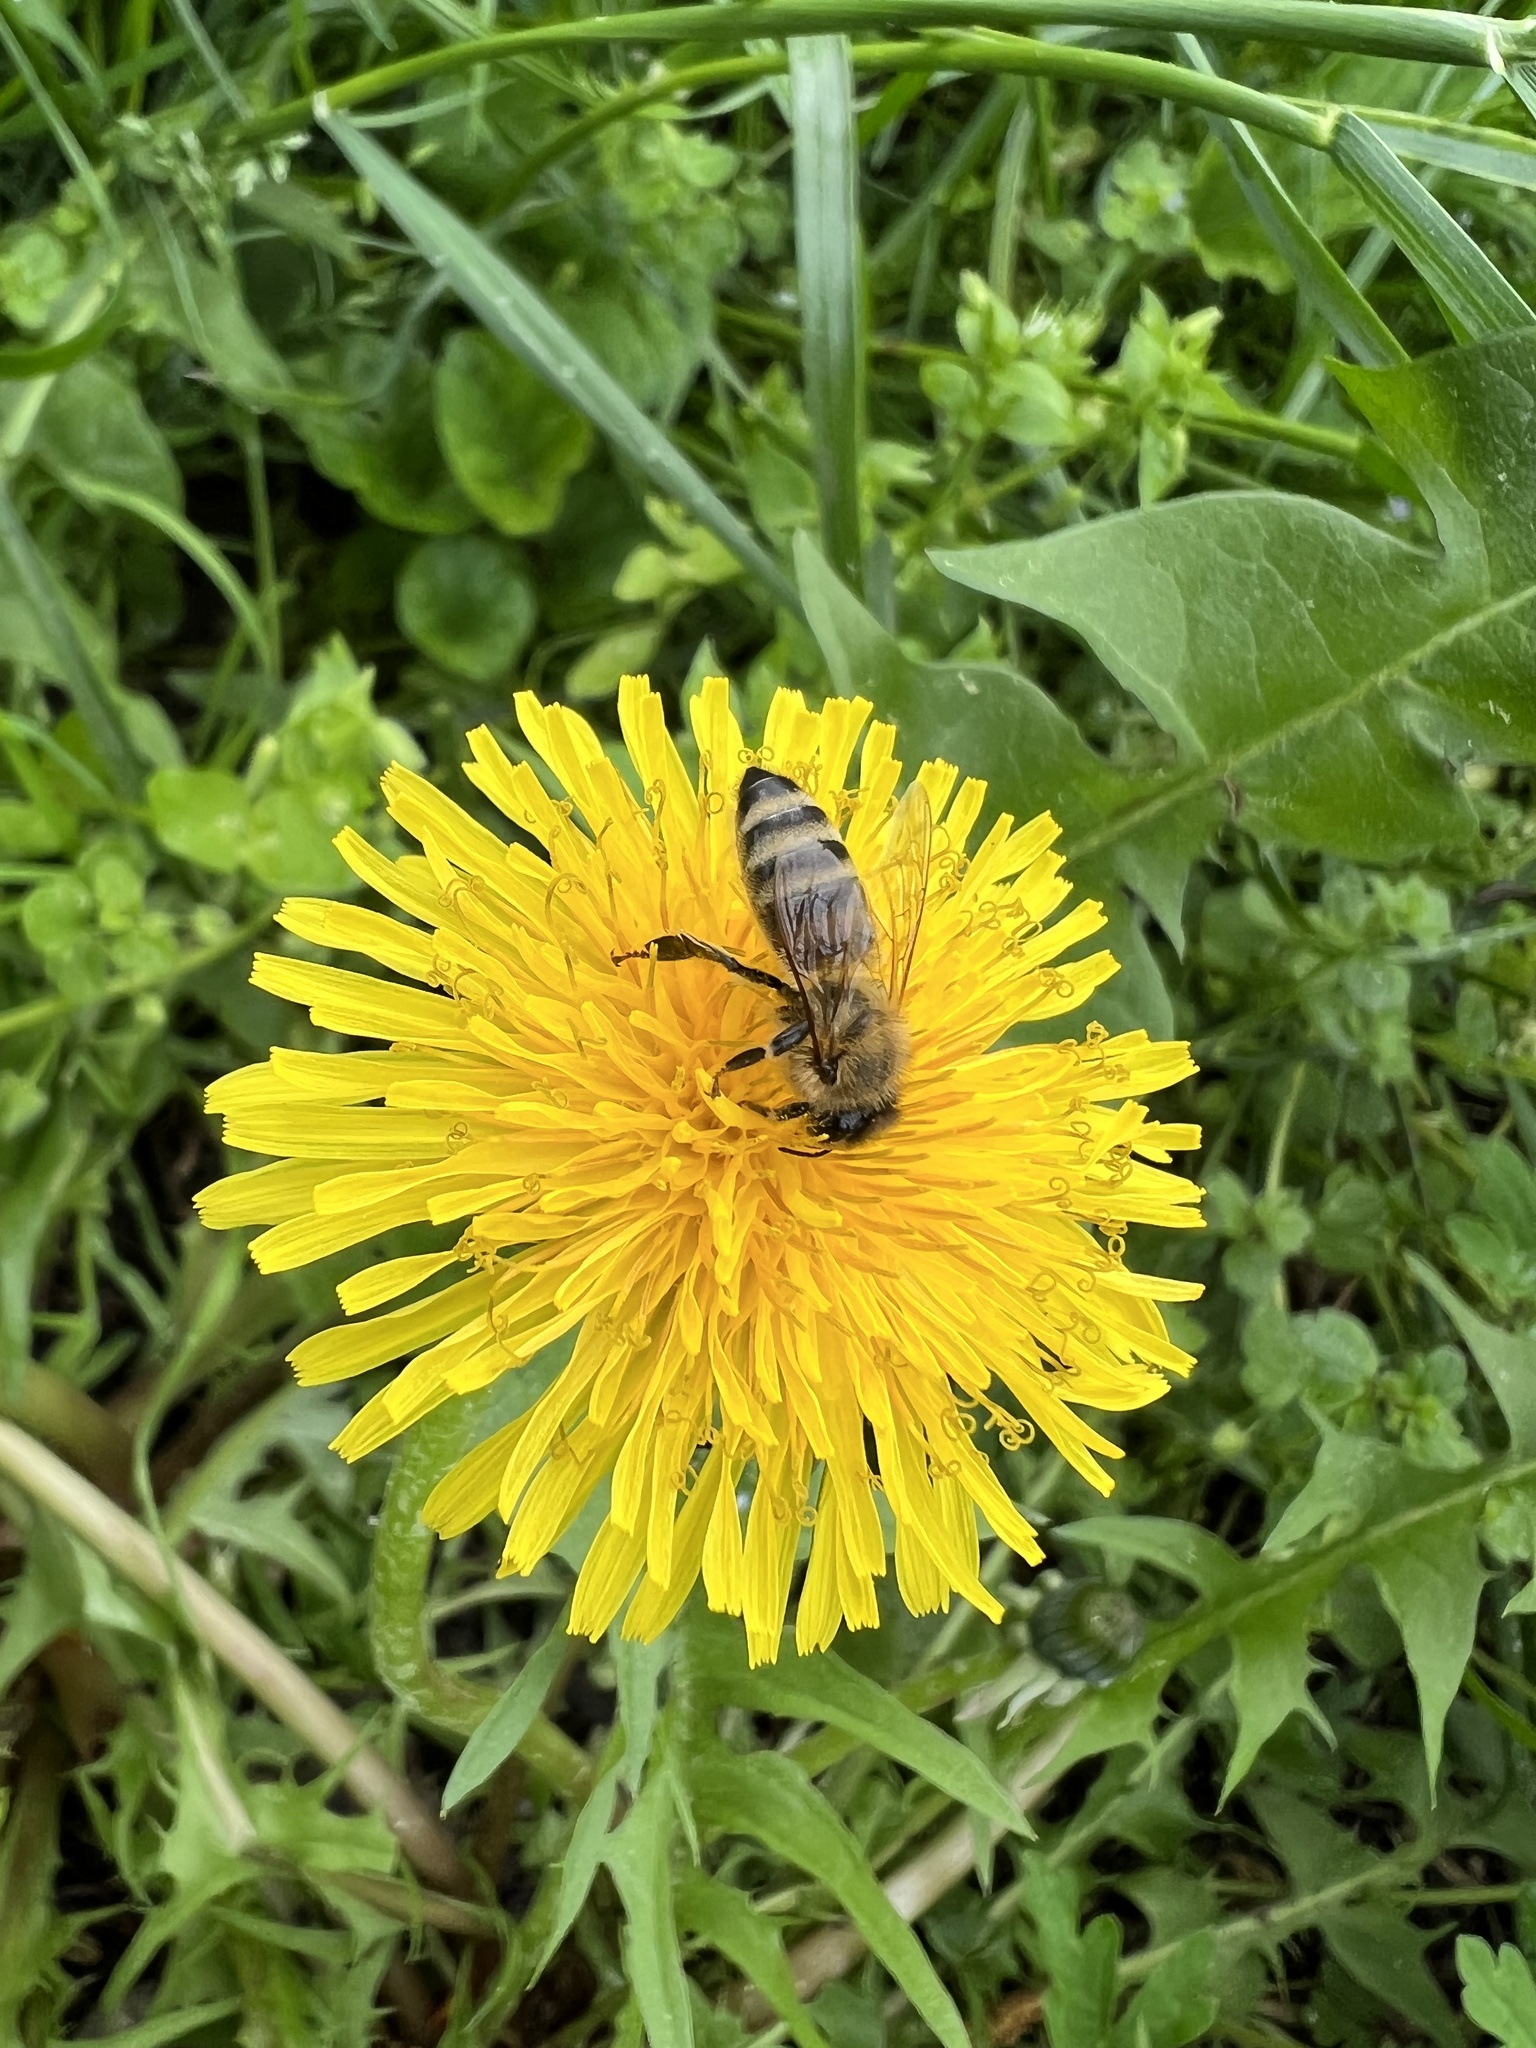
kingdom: Animalia
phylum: Arthropoda
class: Insecta
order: Hymenoptera
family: Apidae
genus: Apis
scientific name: Apis mellifera
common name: Honey bee
